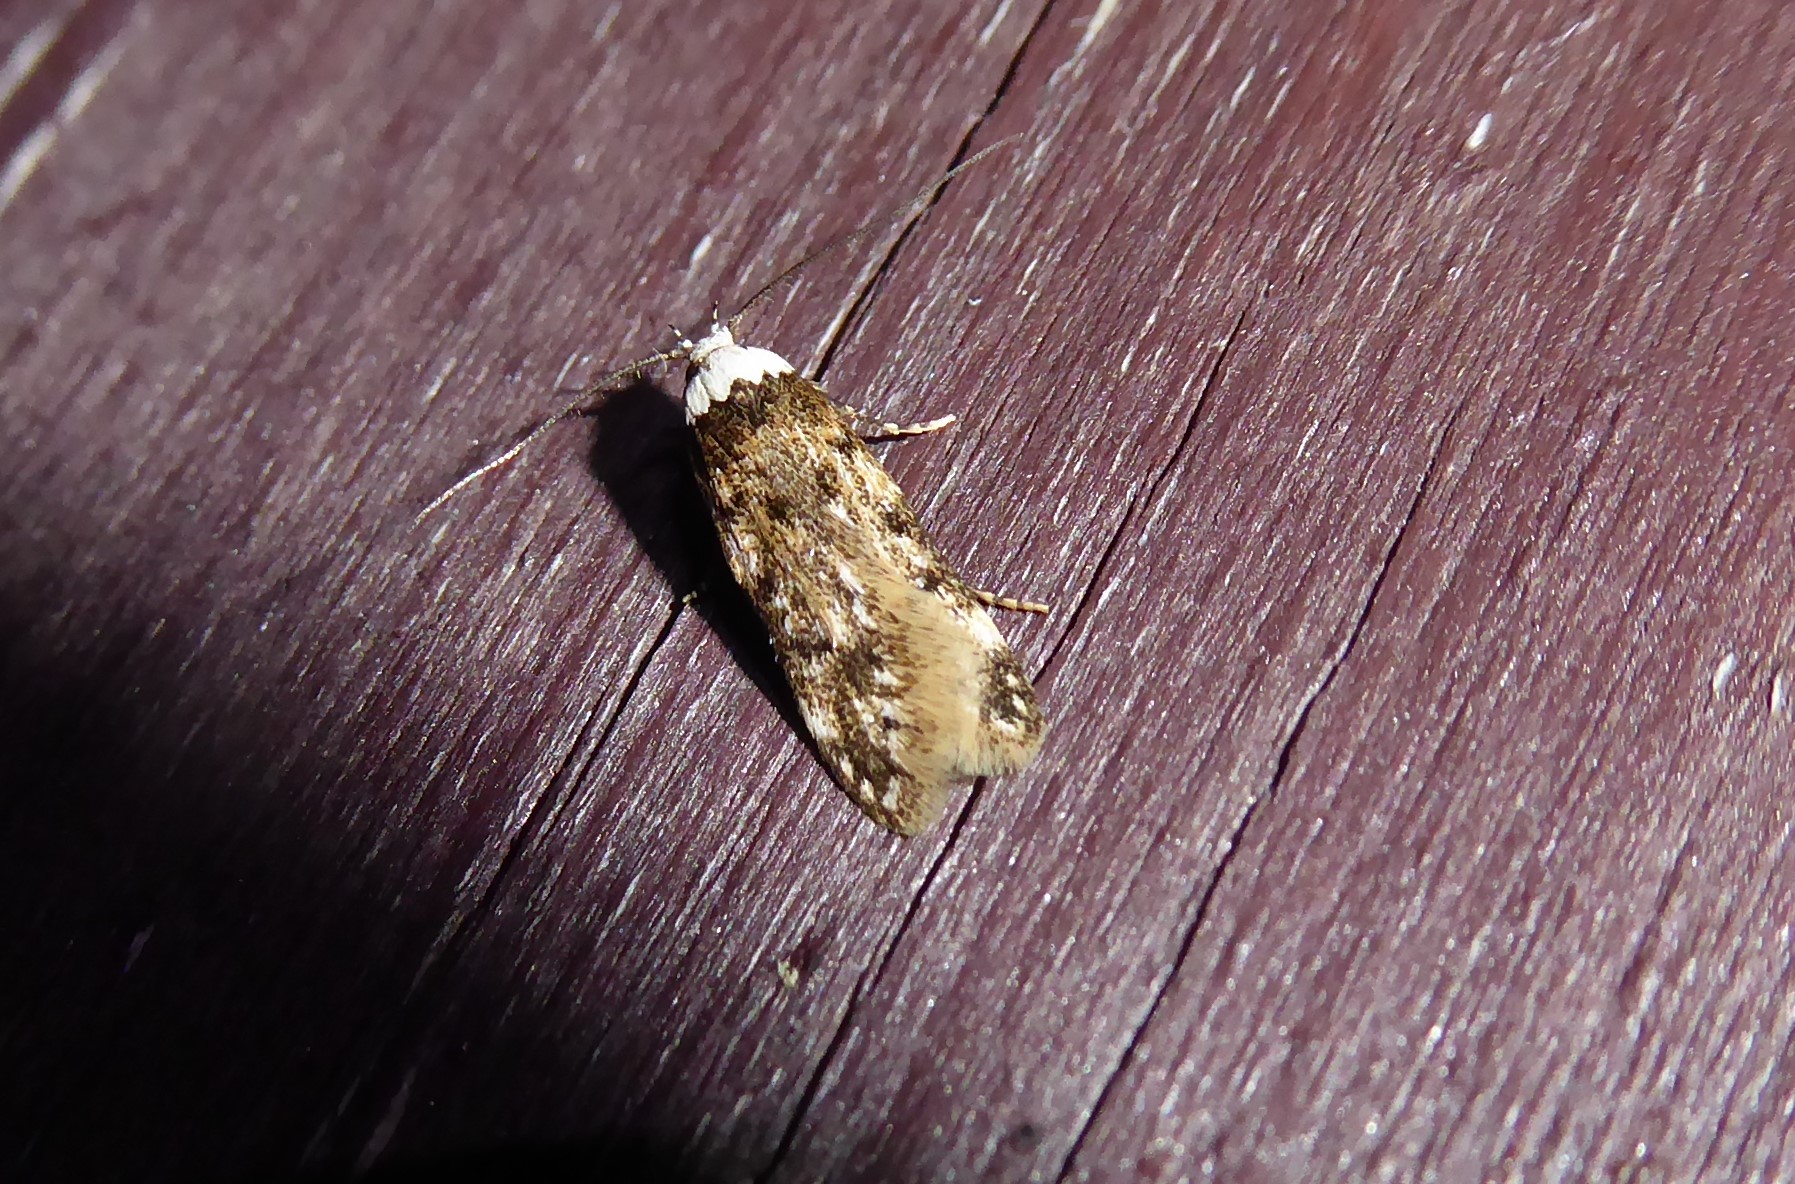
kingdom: Animalia
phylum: Arthropoda
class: Insecta
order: Lepidoptera
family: Oecophoridae
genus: Endrosis
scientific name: Endrosis sarcitrella
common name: White-shouldered house moth
